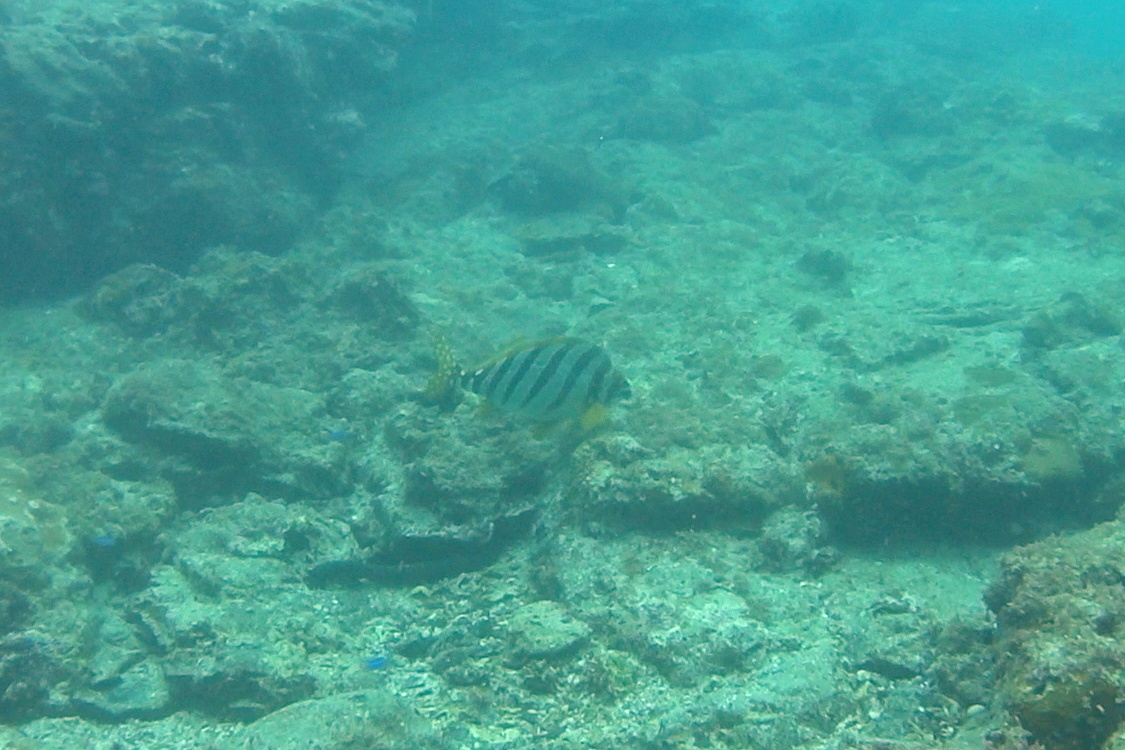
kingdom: Animalia
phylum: Chordata
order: Perciformes
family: Cheilodactylidae
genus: Cheilodactylus
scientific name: Cheilodactylus zonatus
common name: Spottedtail morwong
